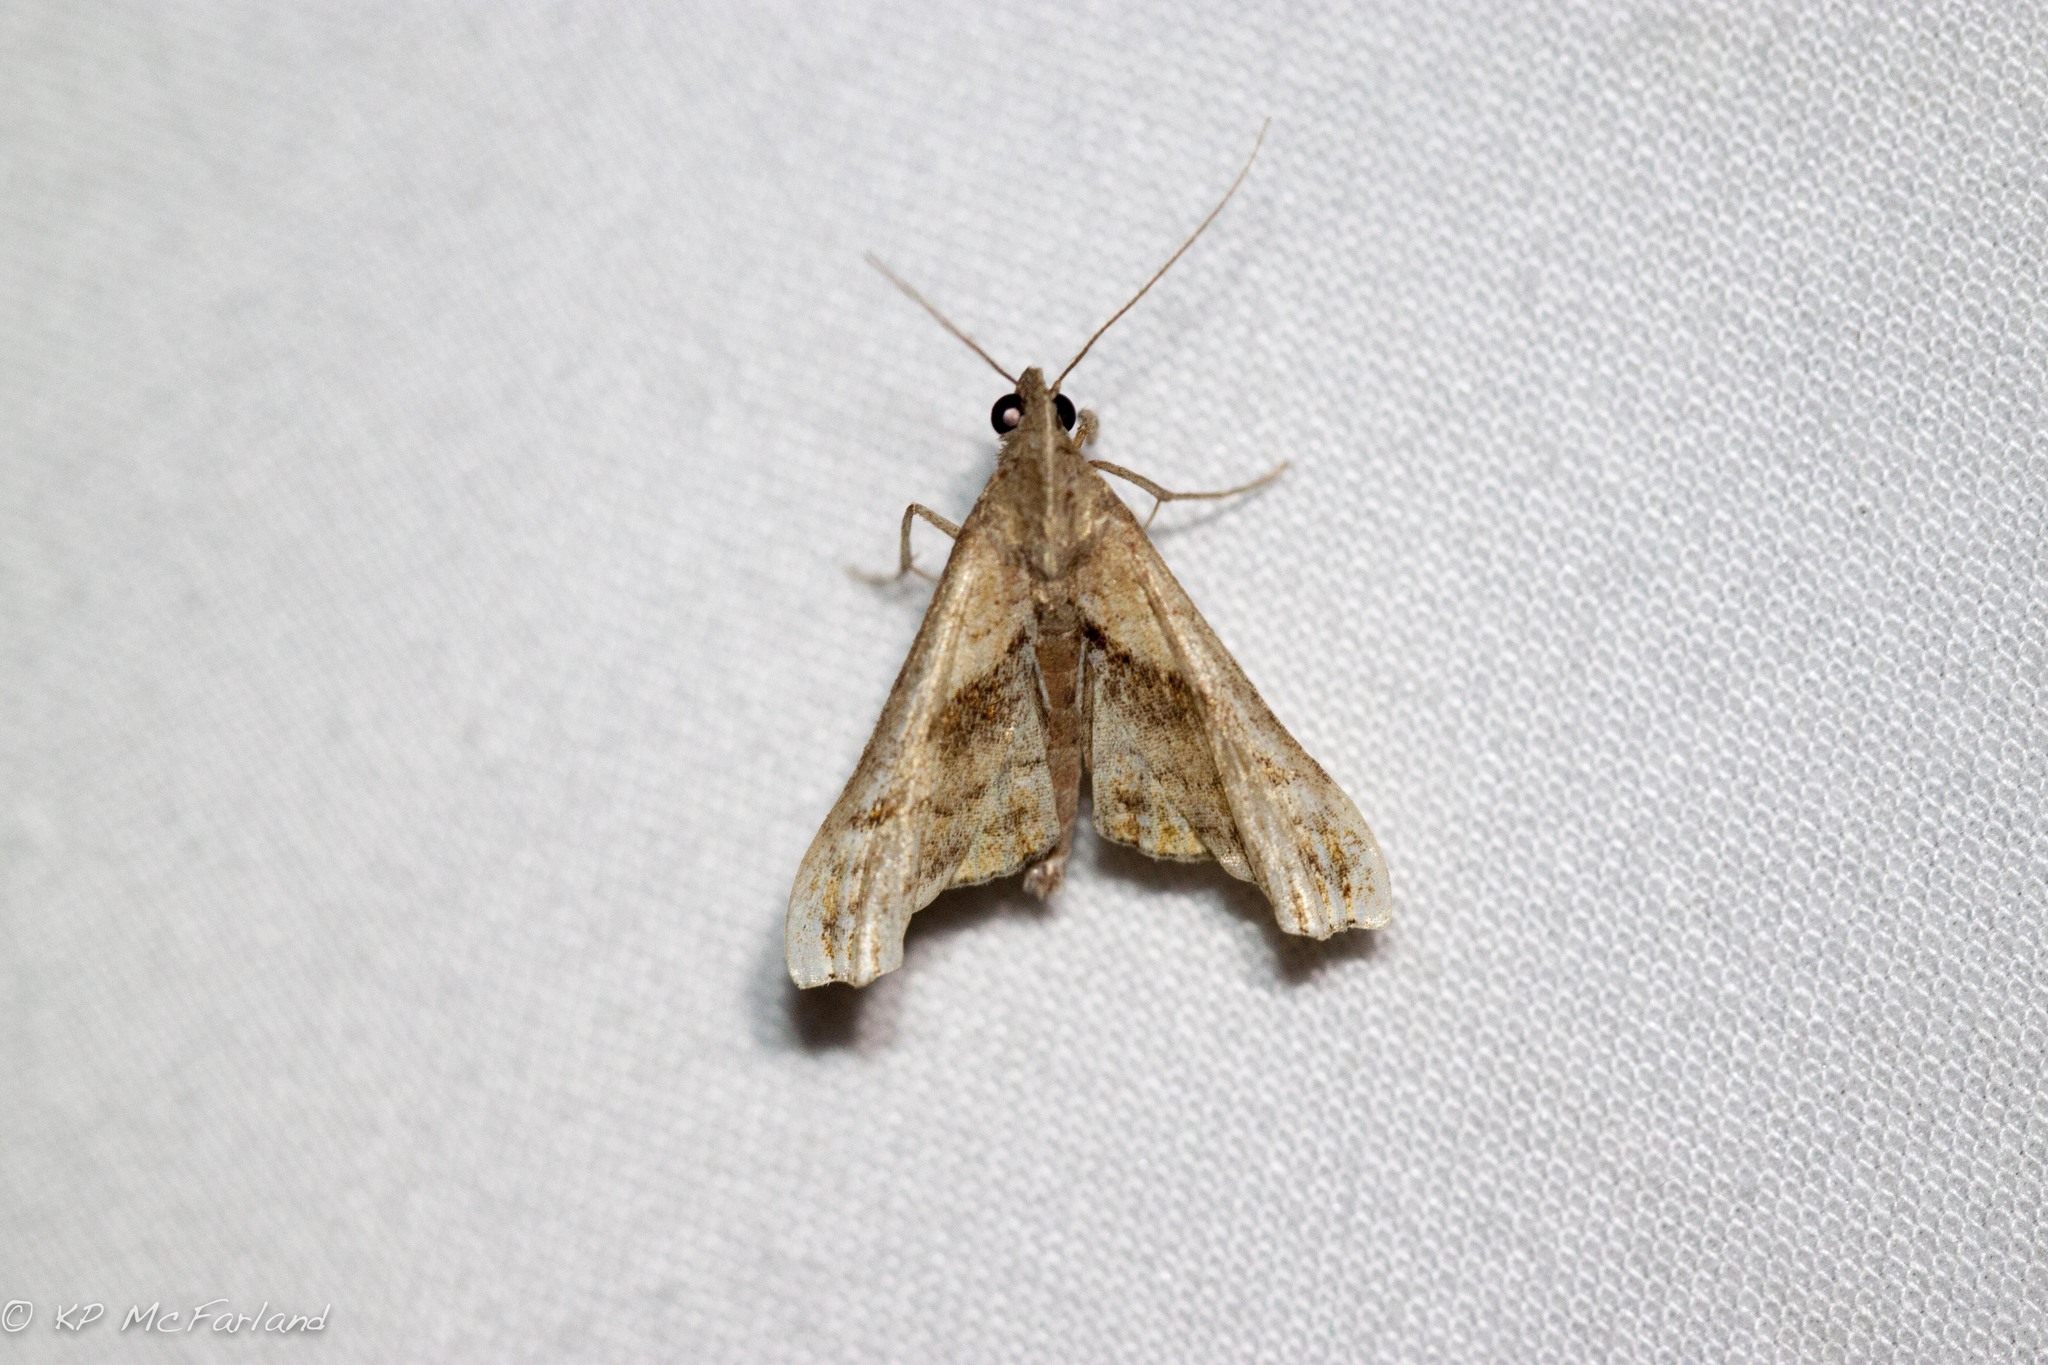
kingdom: Animalia
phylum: Arthropoda
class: Insecta
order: Lepidoptera
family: Erebidae
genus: Palthis
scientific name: Palthis angulalis
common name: Dark-spotted palthis moth
